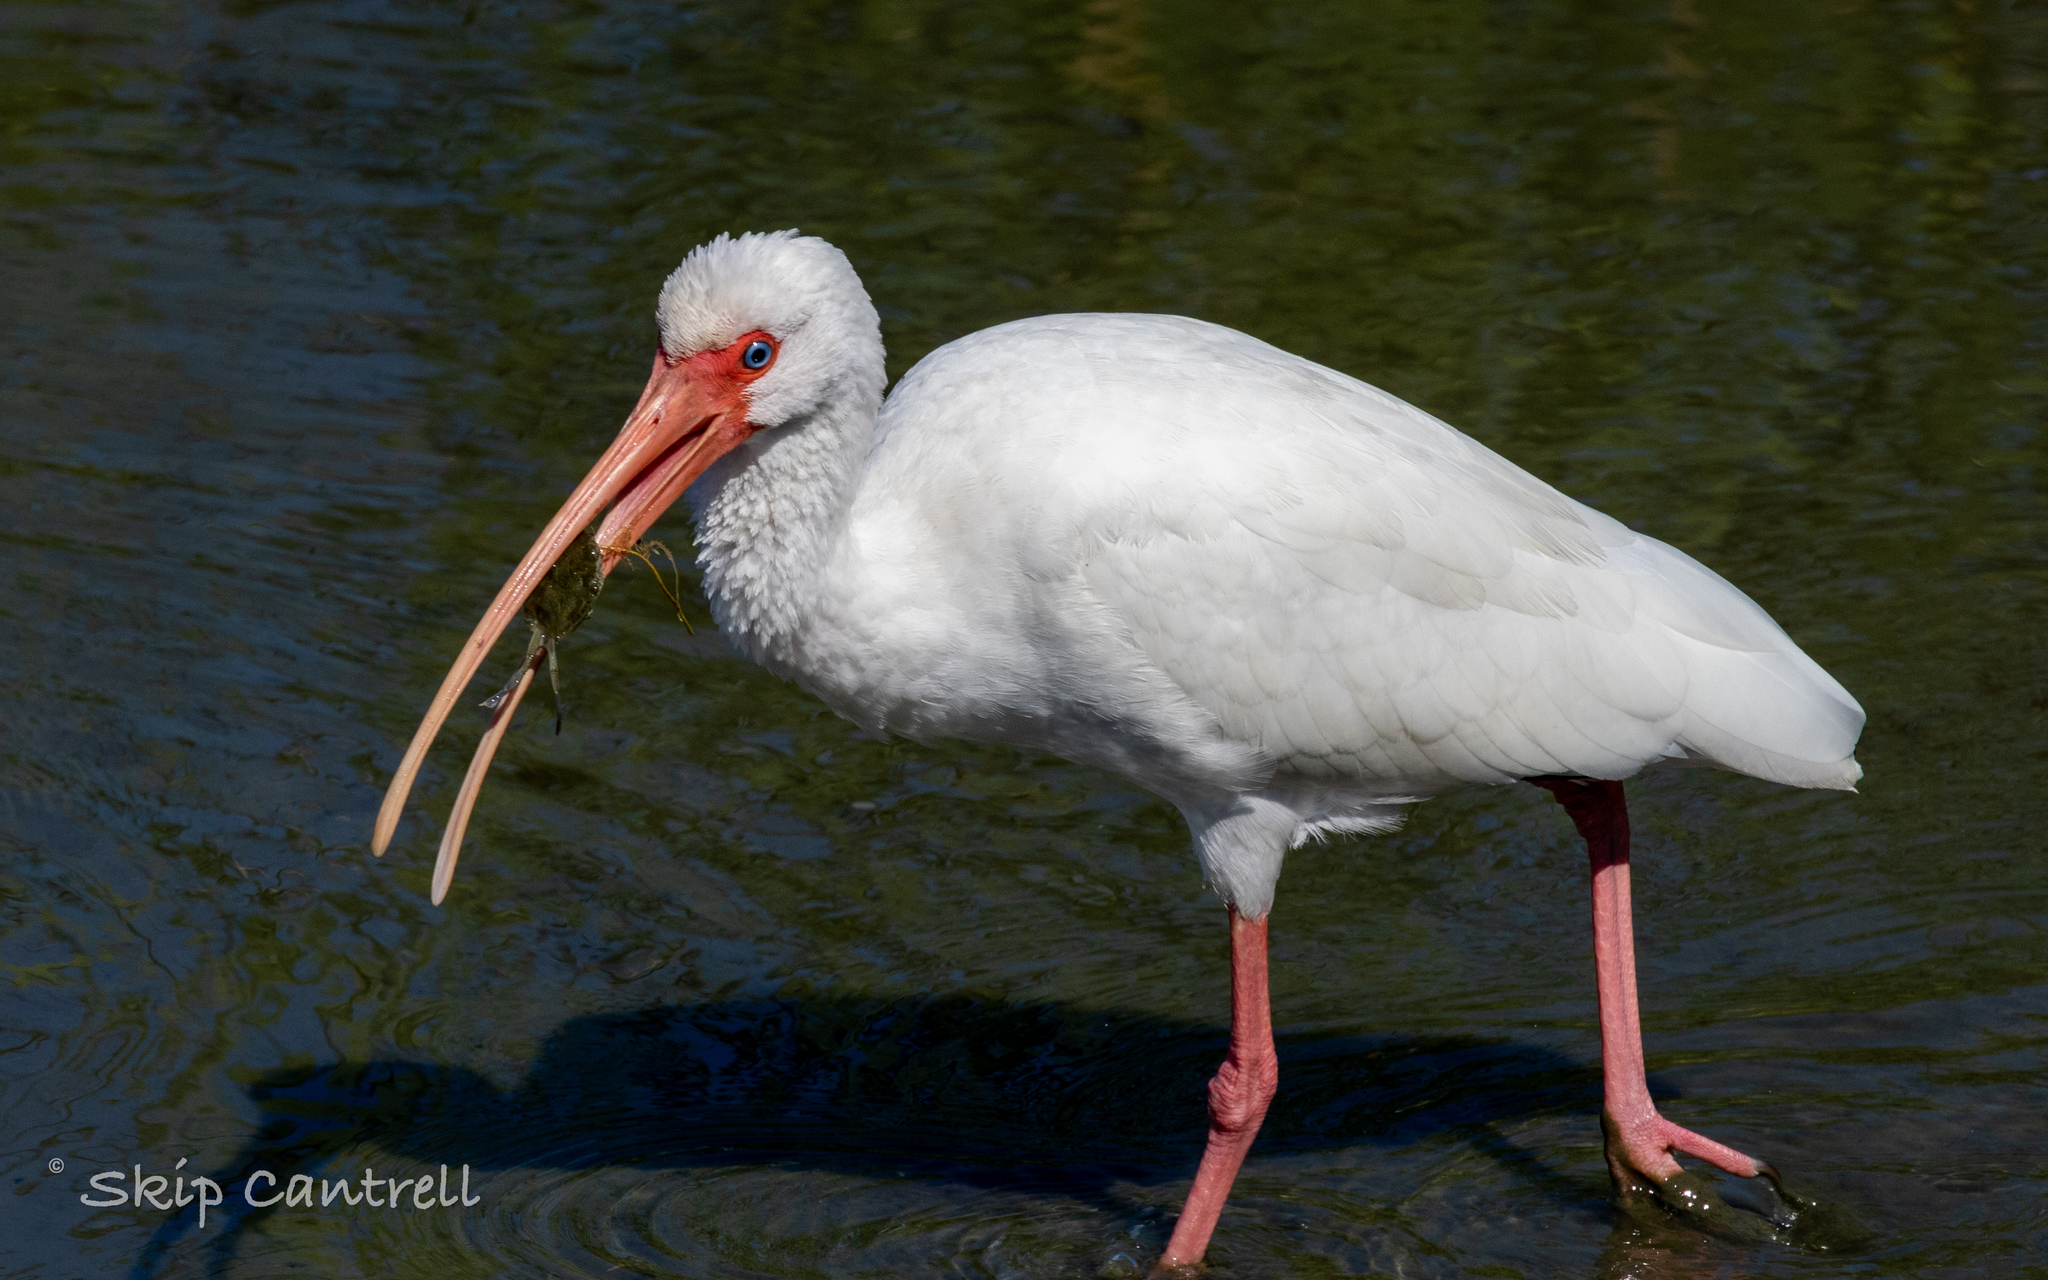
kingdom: Animalia
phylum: Chordata
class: Aves
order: Pelecaniformes
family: Threskiornithidae
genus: Eudocimus
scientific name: Eudocimus albus
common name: White ibis
